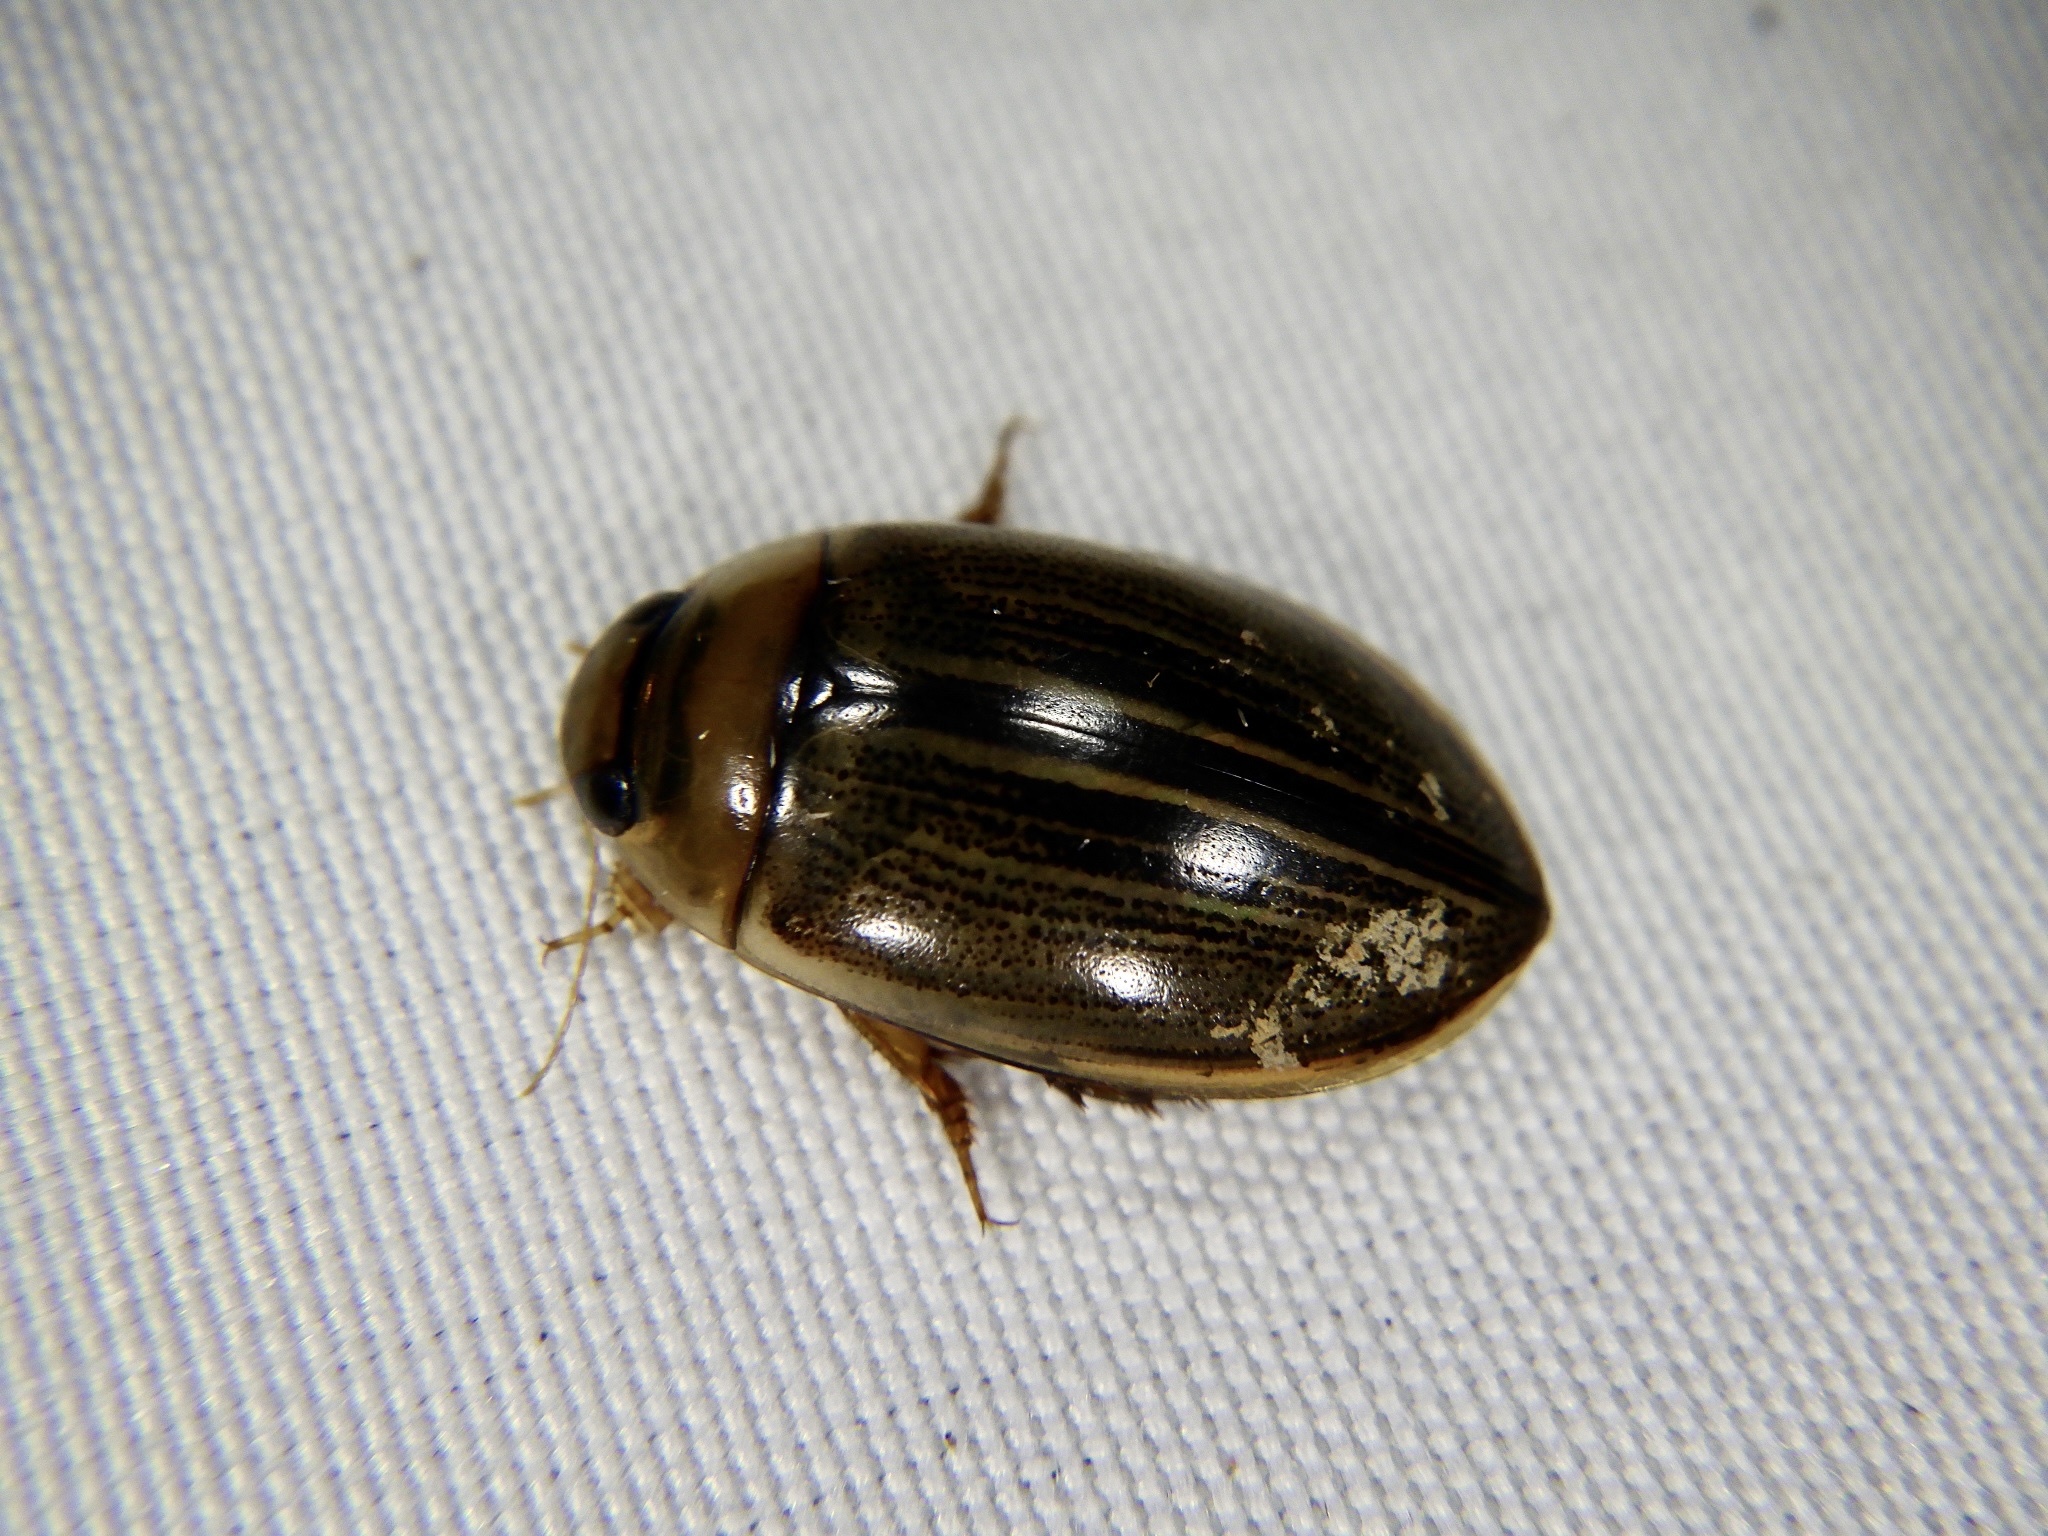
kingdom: Animalia
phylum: Arthropoda
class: Insecta
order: Coleoptera
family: Dytiscidae
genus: Hydaticus
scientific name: Hydaticus grammicus
